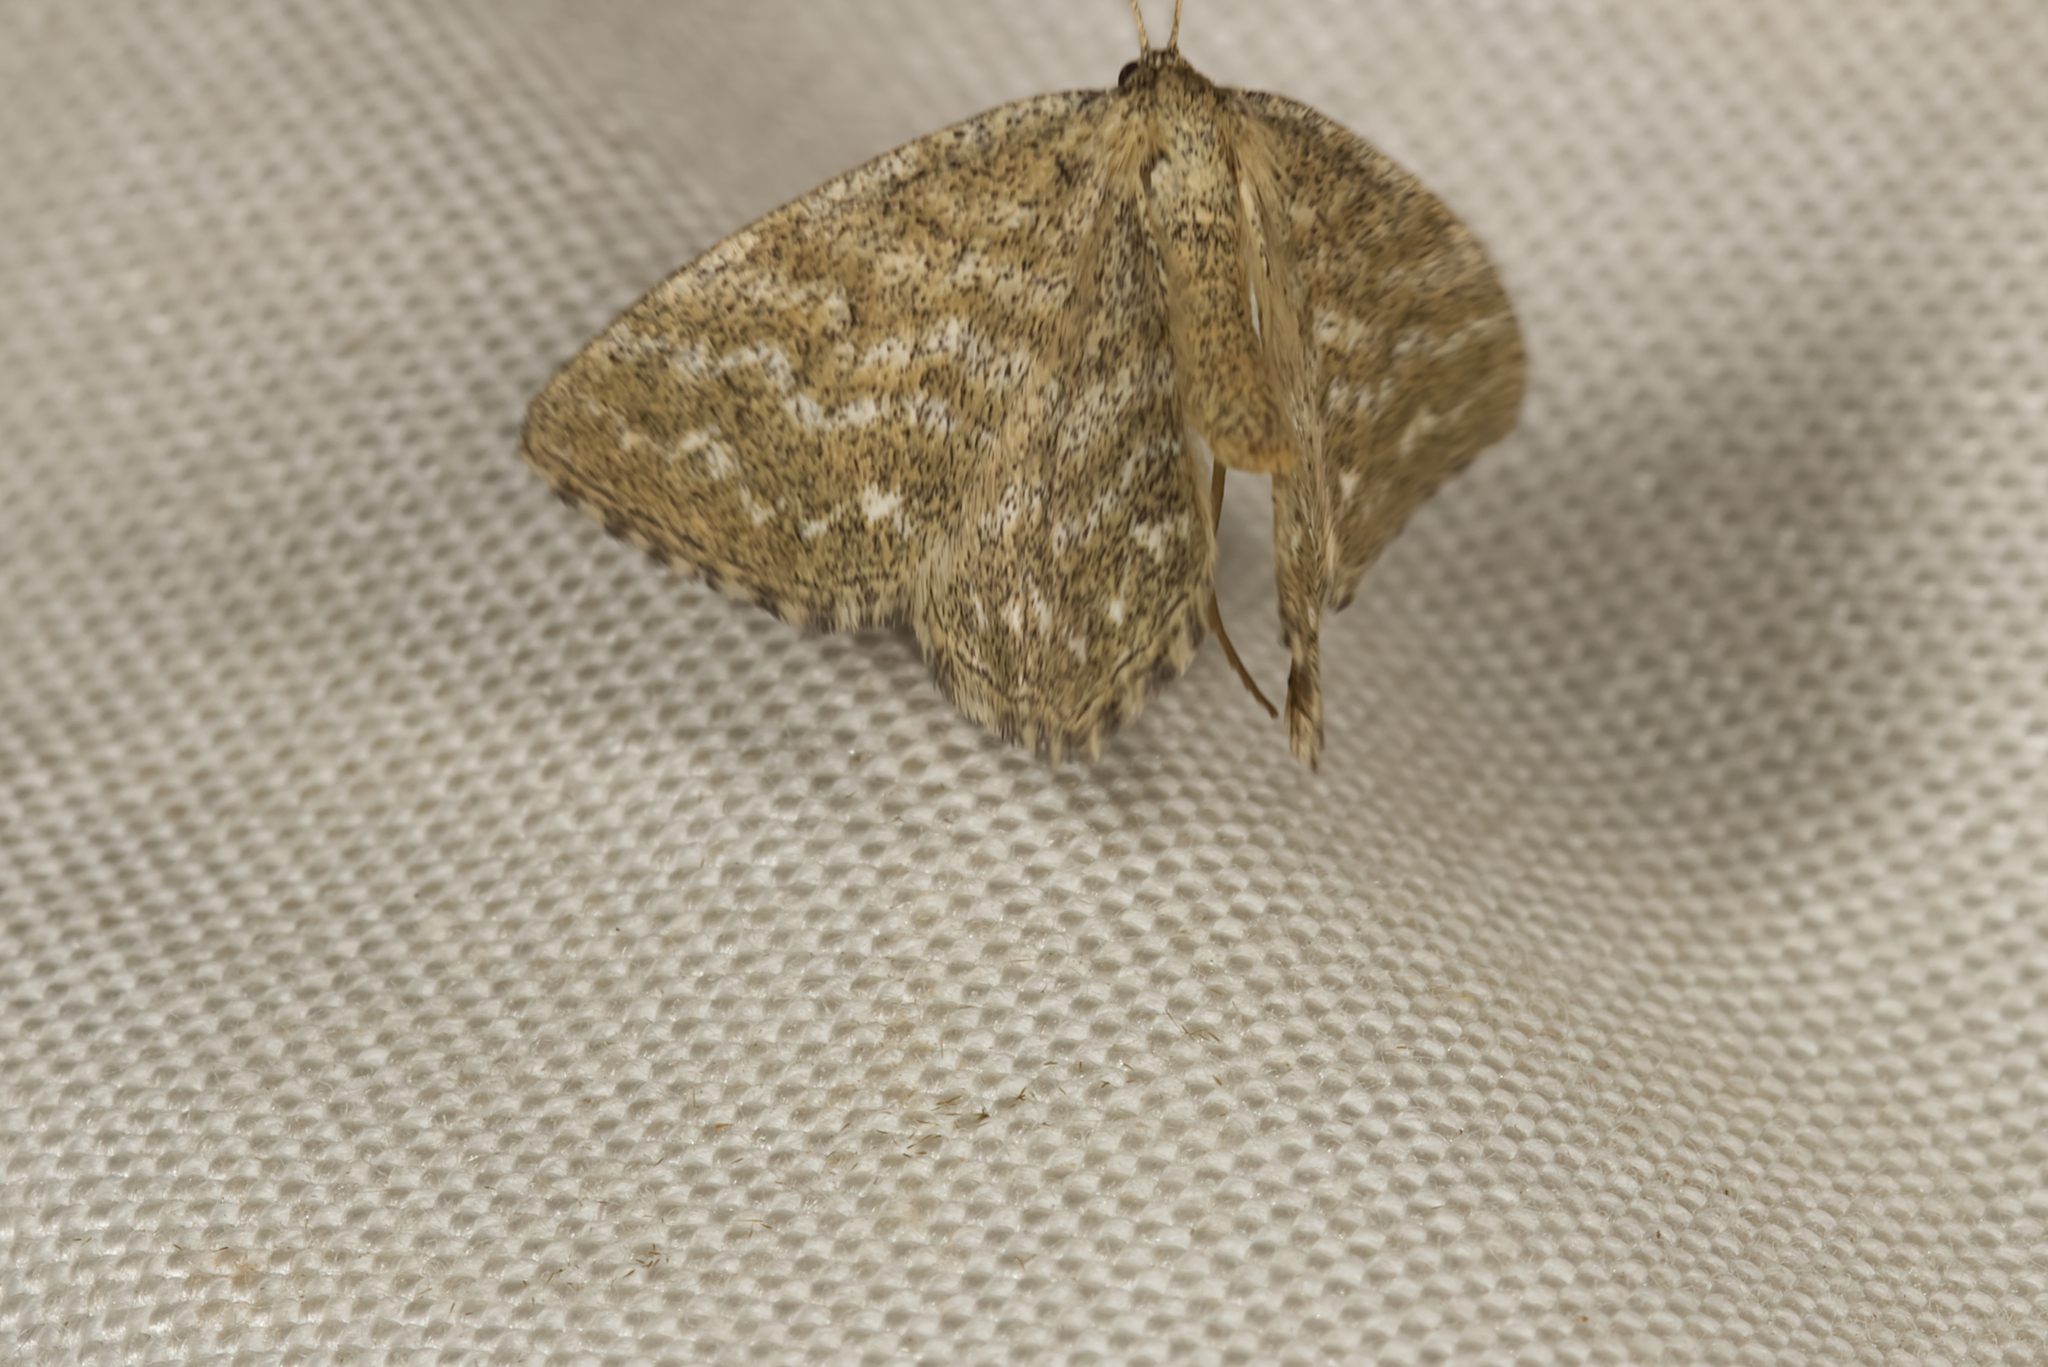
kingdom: Animalia
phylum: Arthropoda
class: Insecta
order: Lepidoptera
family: Geometridae
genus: Scopula
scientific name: Scopula immorata
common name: Lewes wave
